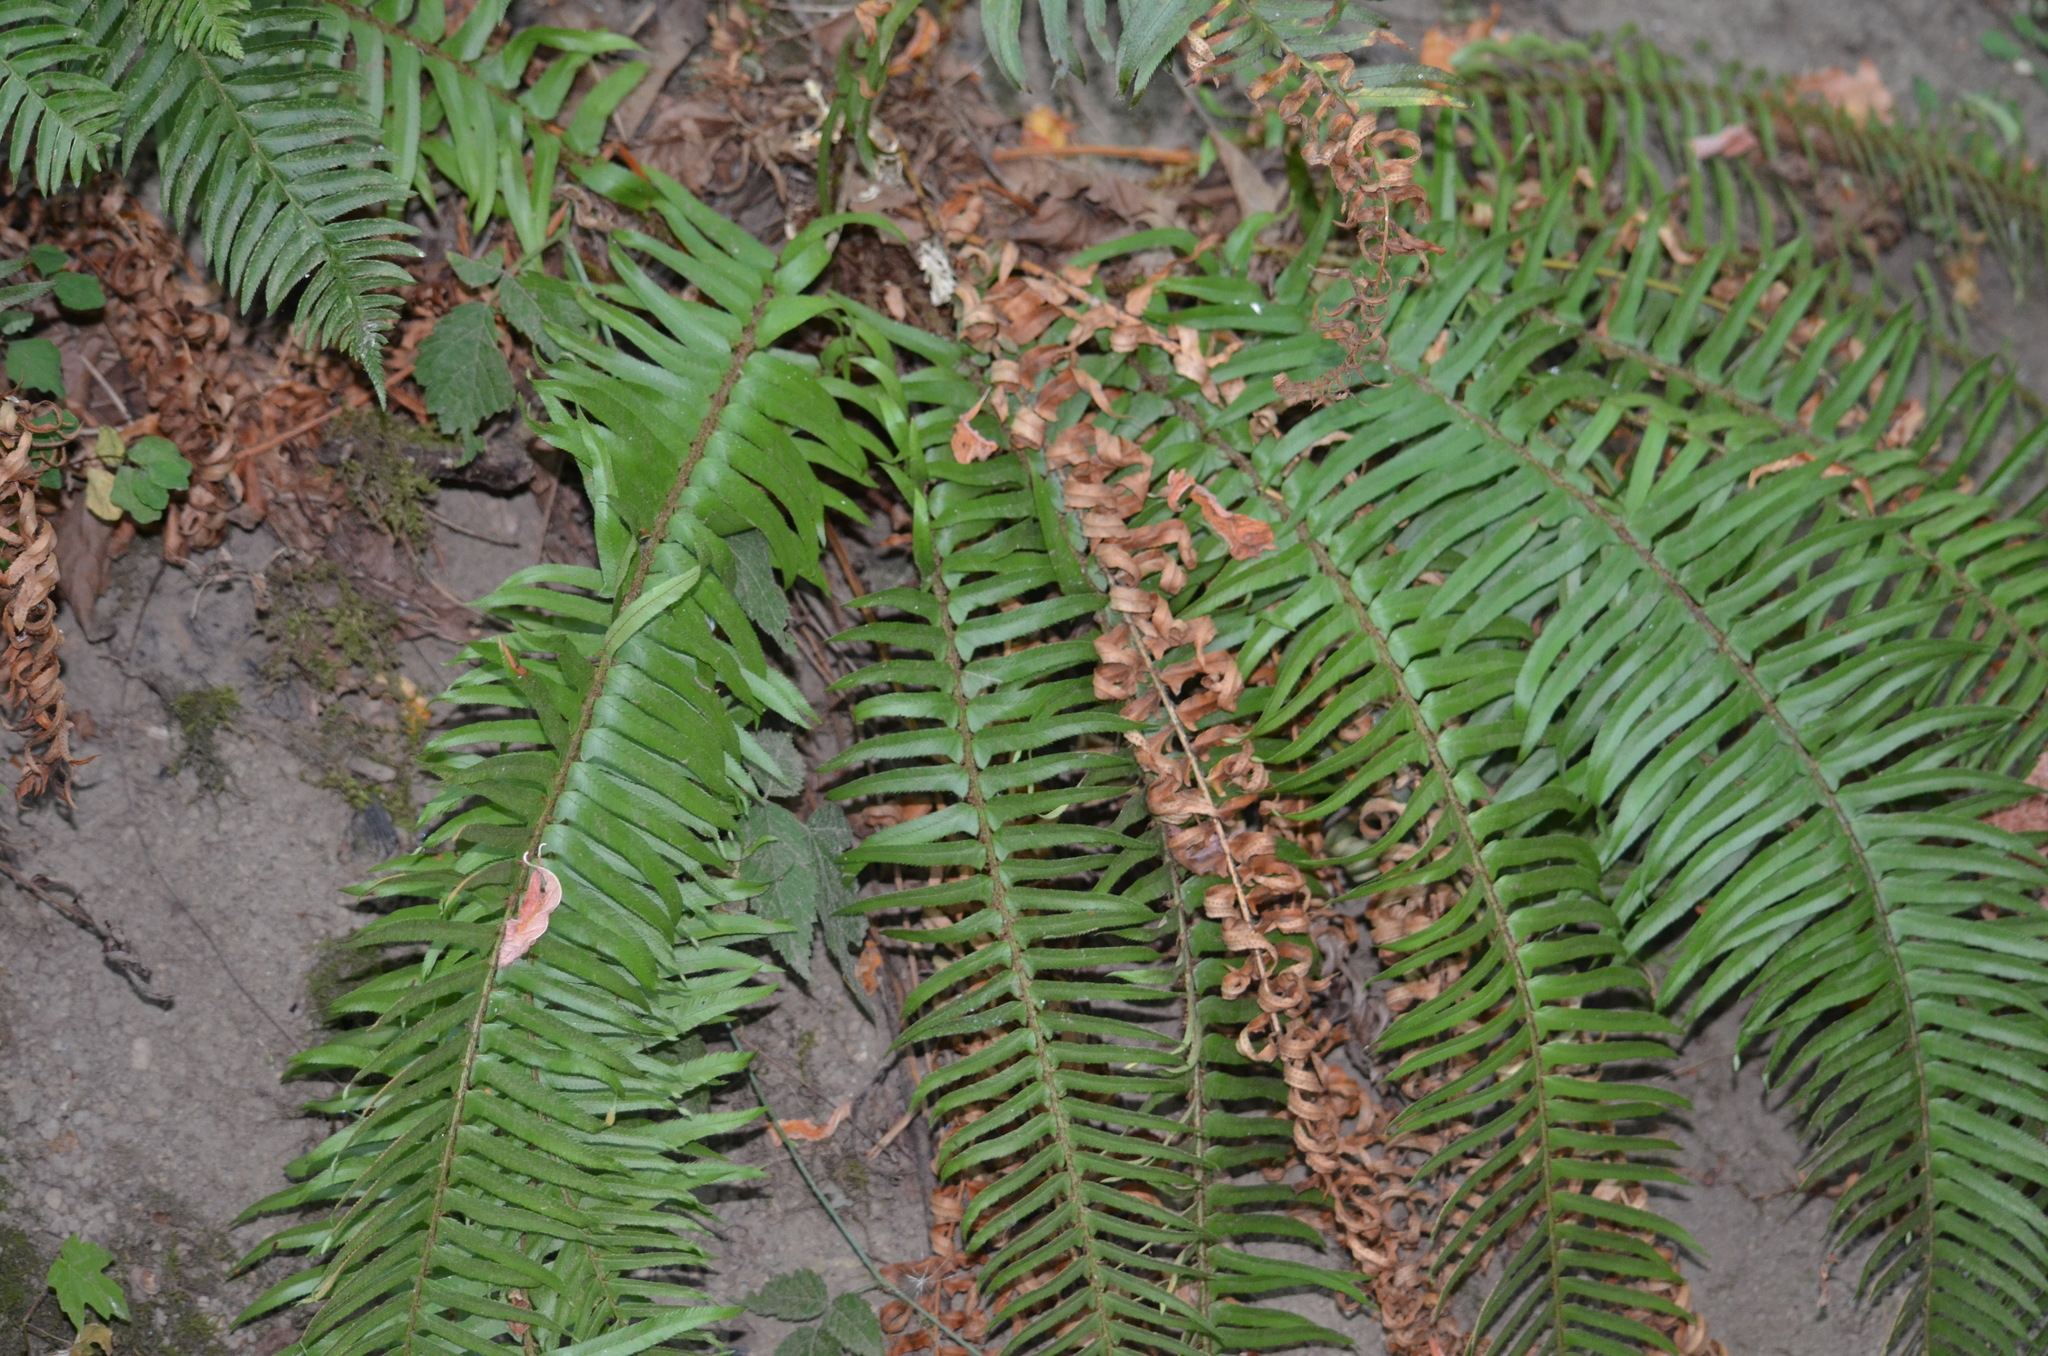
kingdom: Plantae
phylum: Tracheophyta
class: Polypodiopsida
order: Polypodiales
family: Dryopteridaceae
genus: Polystichum
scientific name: Polystichum munitum
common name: Western sword-fern
